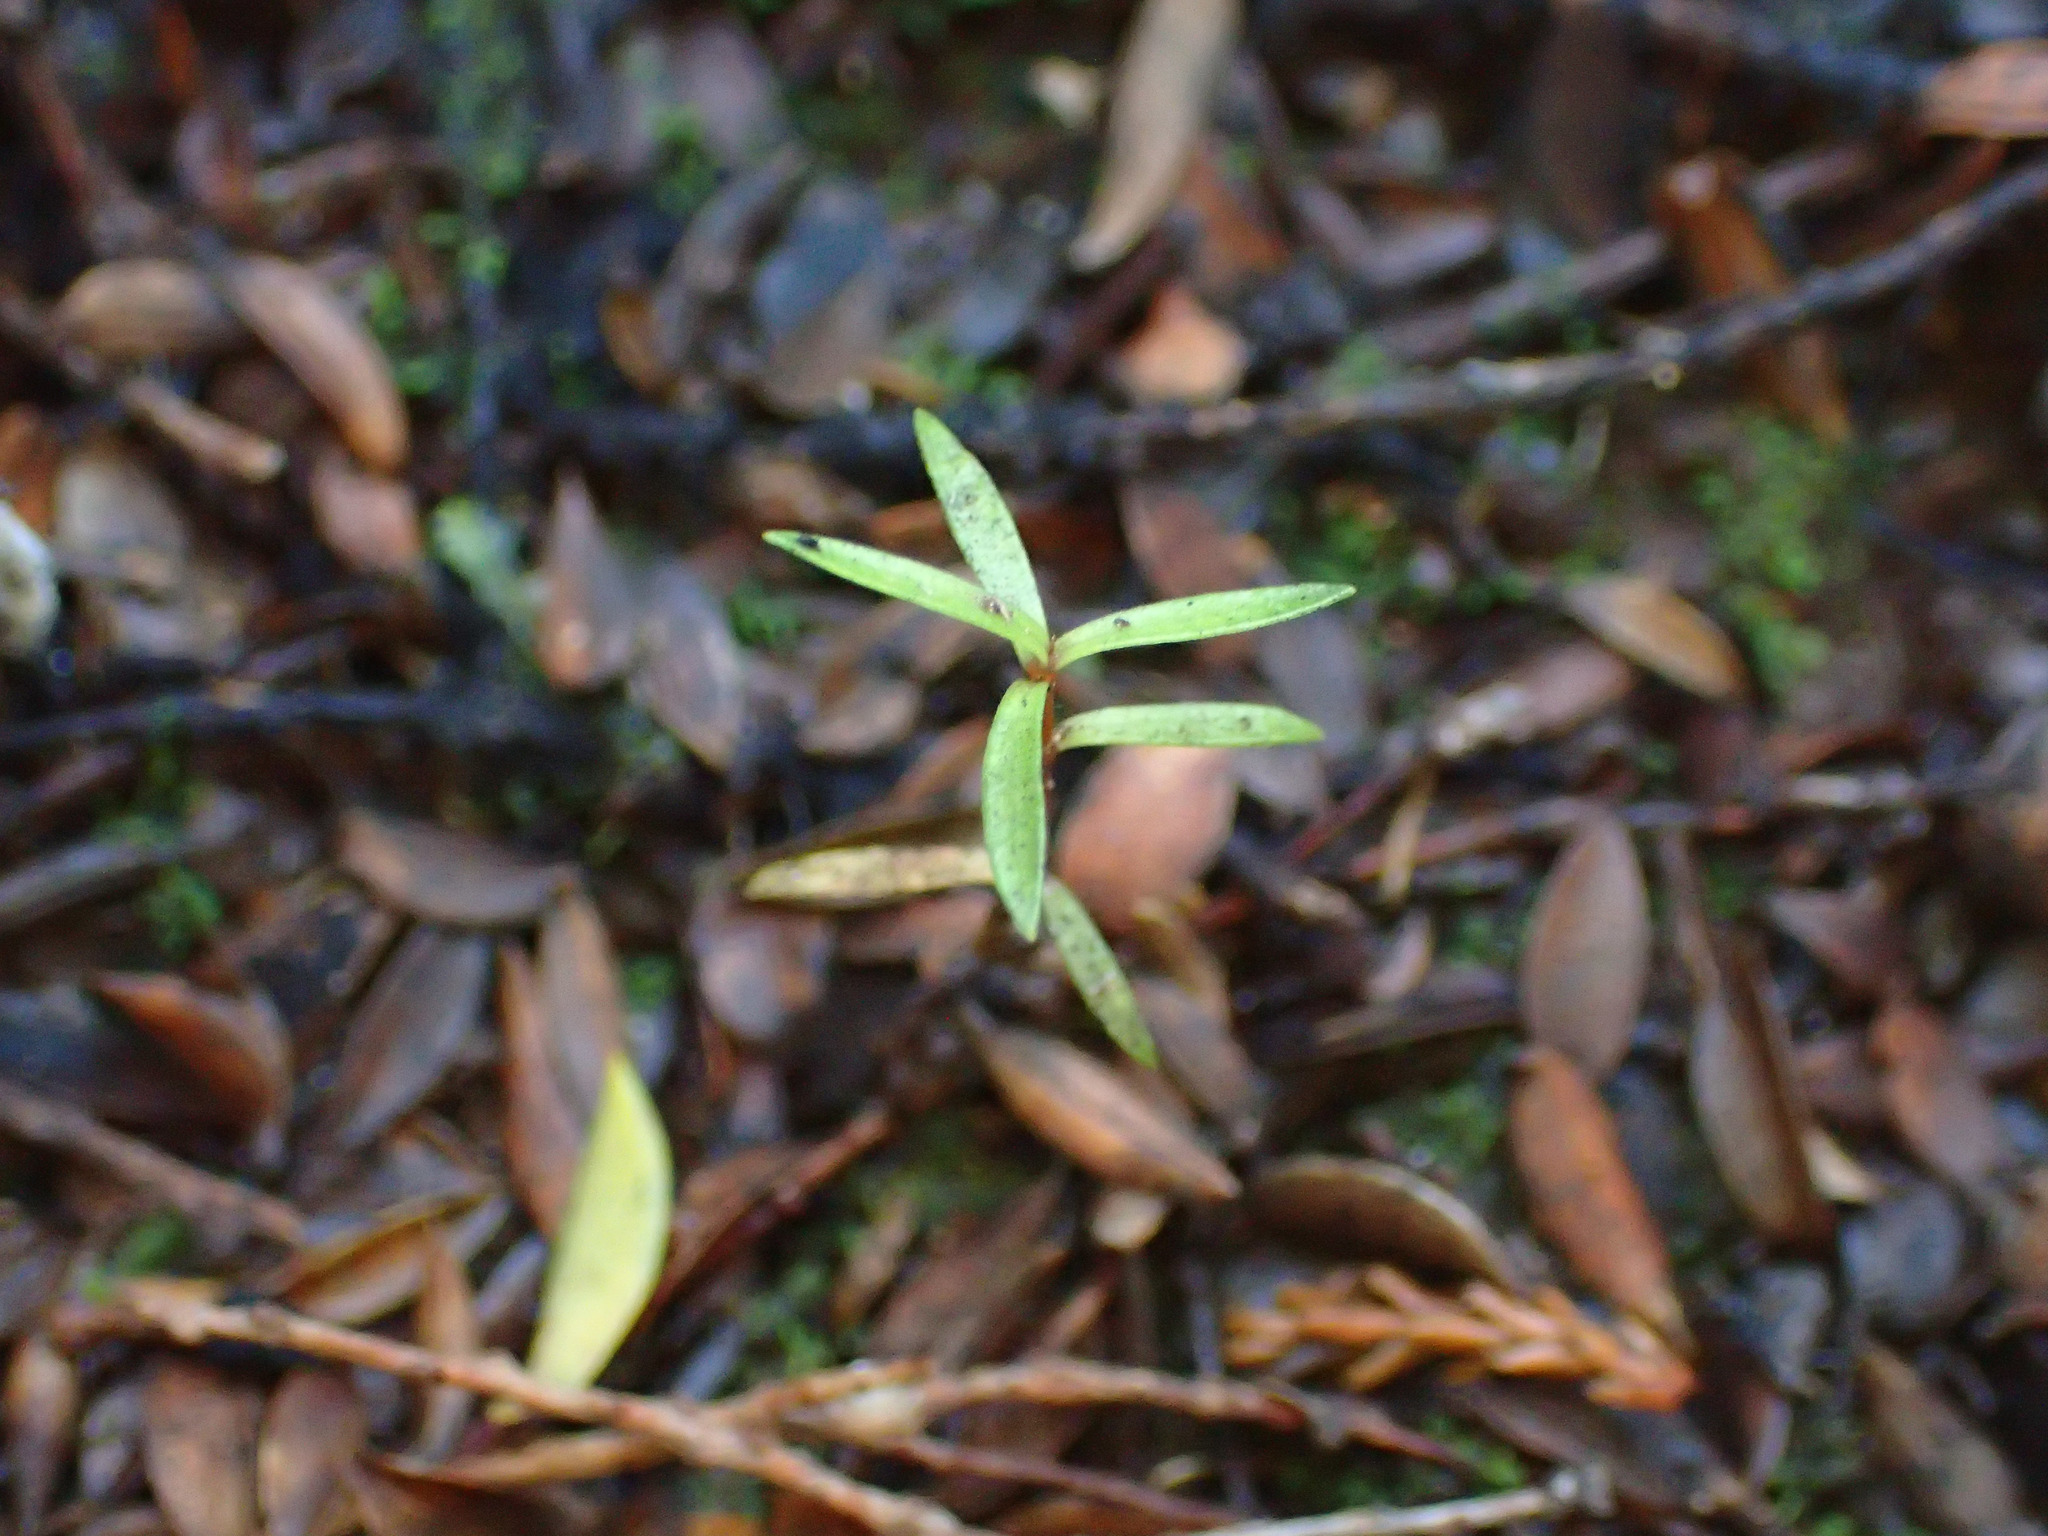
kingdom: Plantae
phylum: Tracheophyta
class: Magnoliopsida
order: Myrtales
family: Myrtaceae
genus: Leptospermum
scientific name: Leptospermum scoparium
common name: Broom tea-tree
